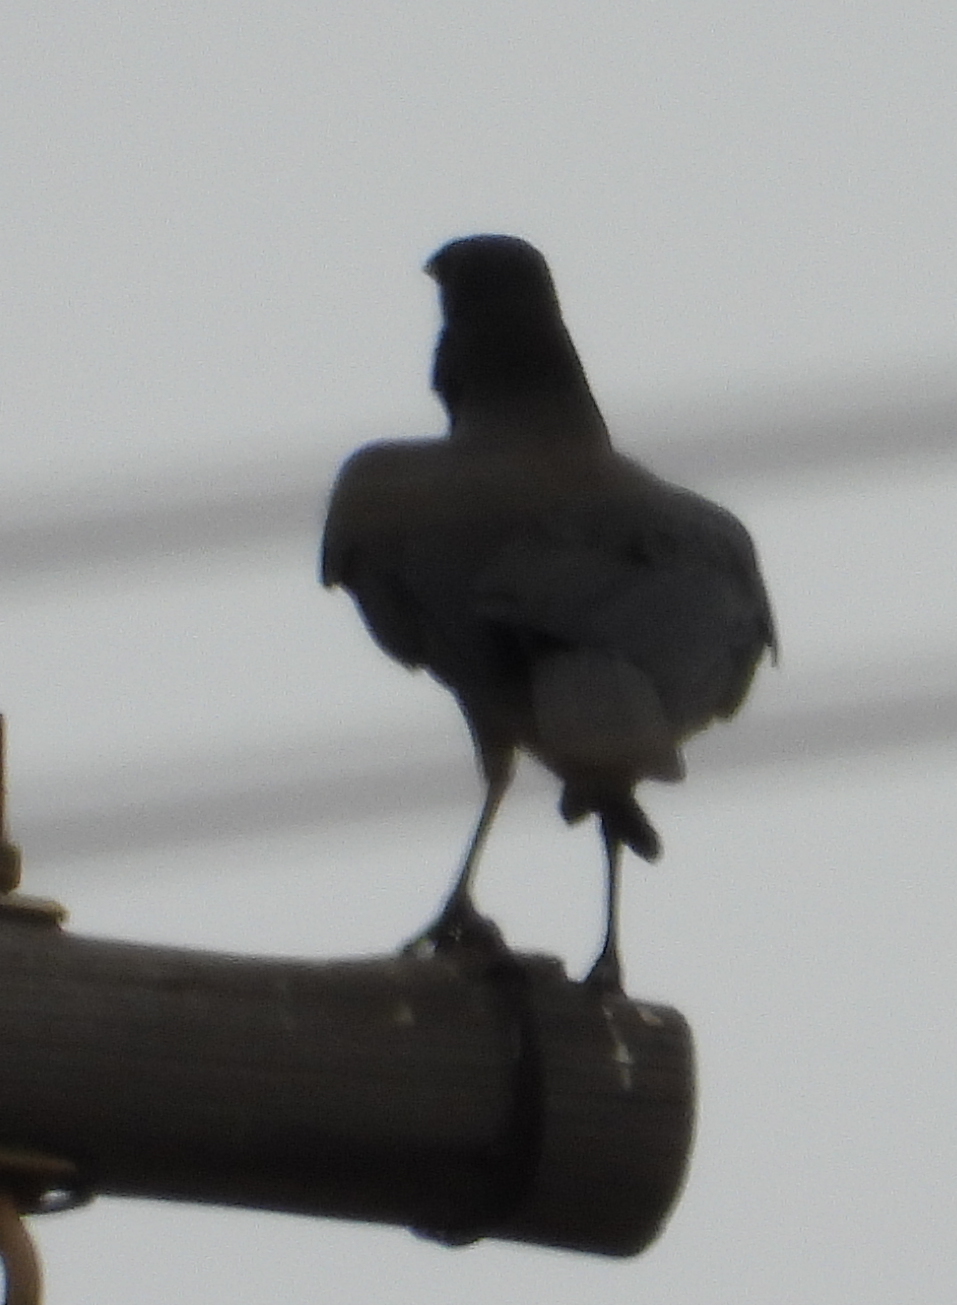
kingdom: Animalia
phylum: Chordata
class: Aves
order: Passeriformes
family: Corvidae
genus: Corvus
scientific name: Corvus capensis
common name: Cape crow
